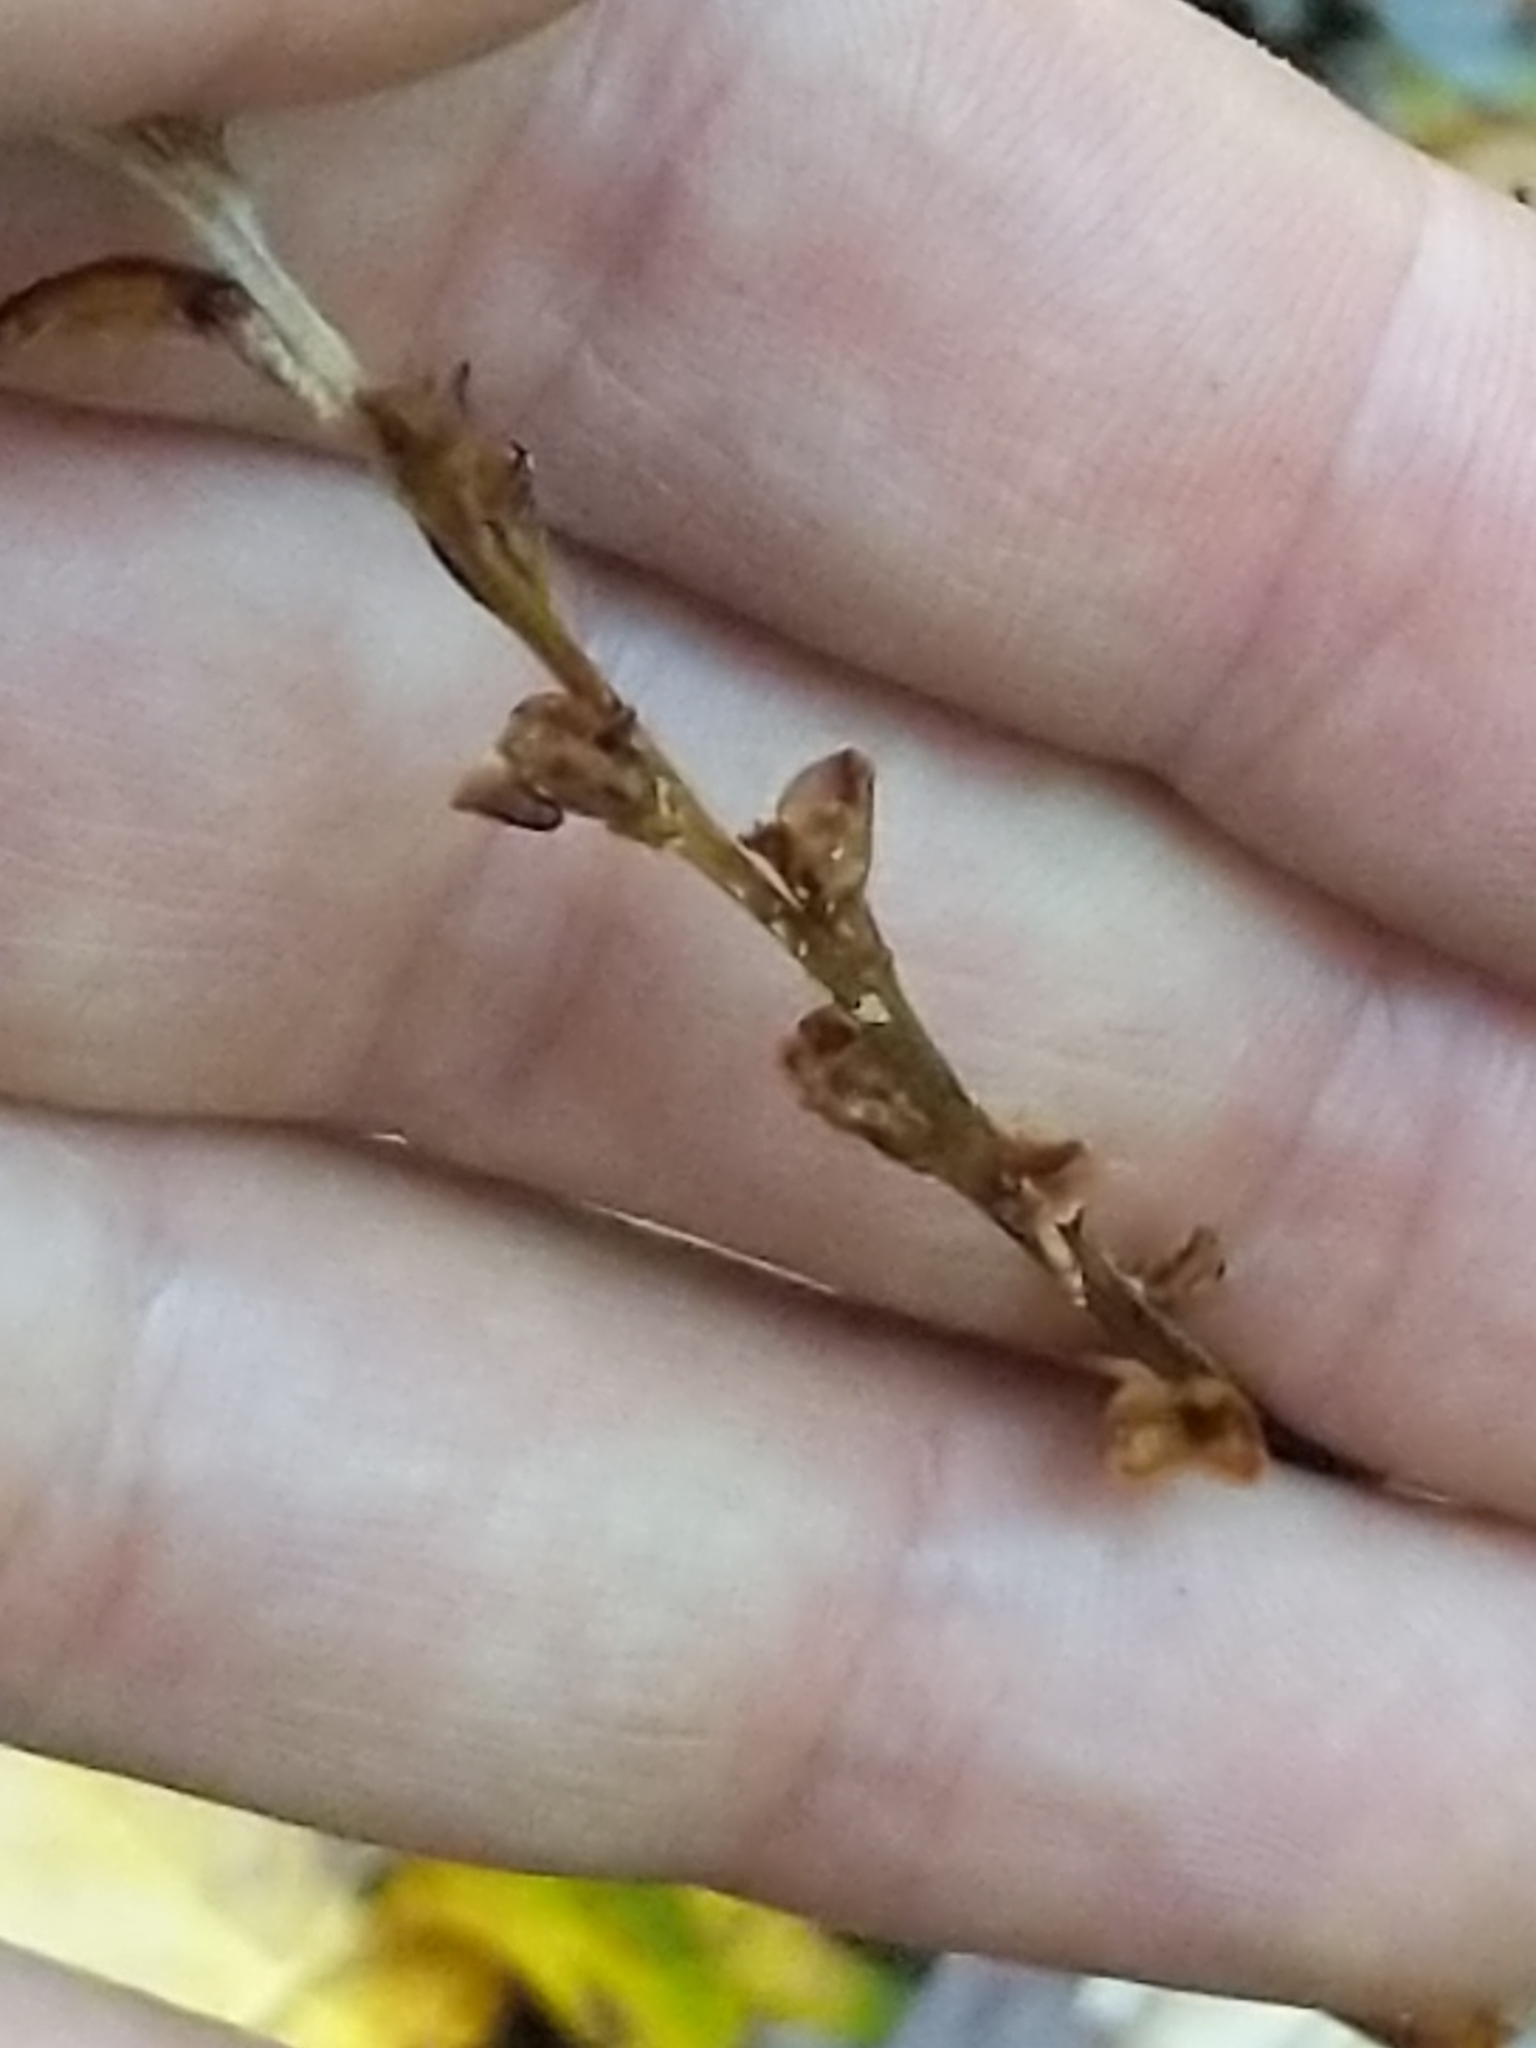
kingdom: Plantae
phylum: Tracheophyta
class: Magnoliopsida
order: Lamiales
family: Orobanchaceae
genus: Epifagus
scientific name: Epifagus virginiana
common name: Beechdrops
